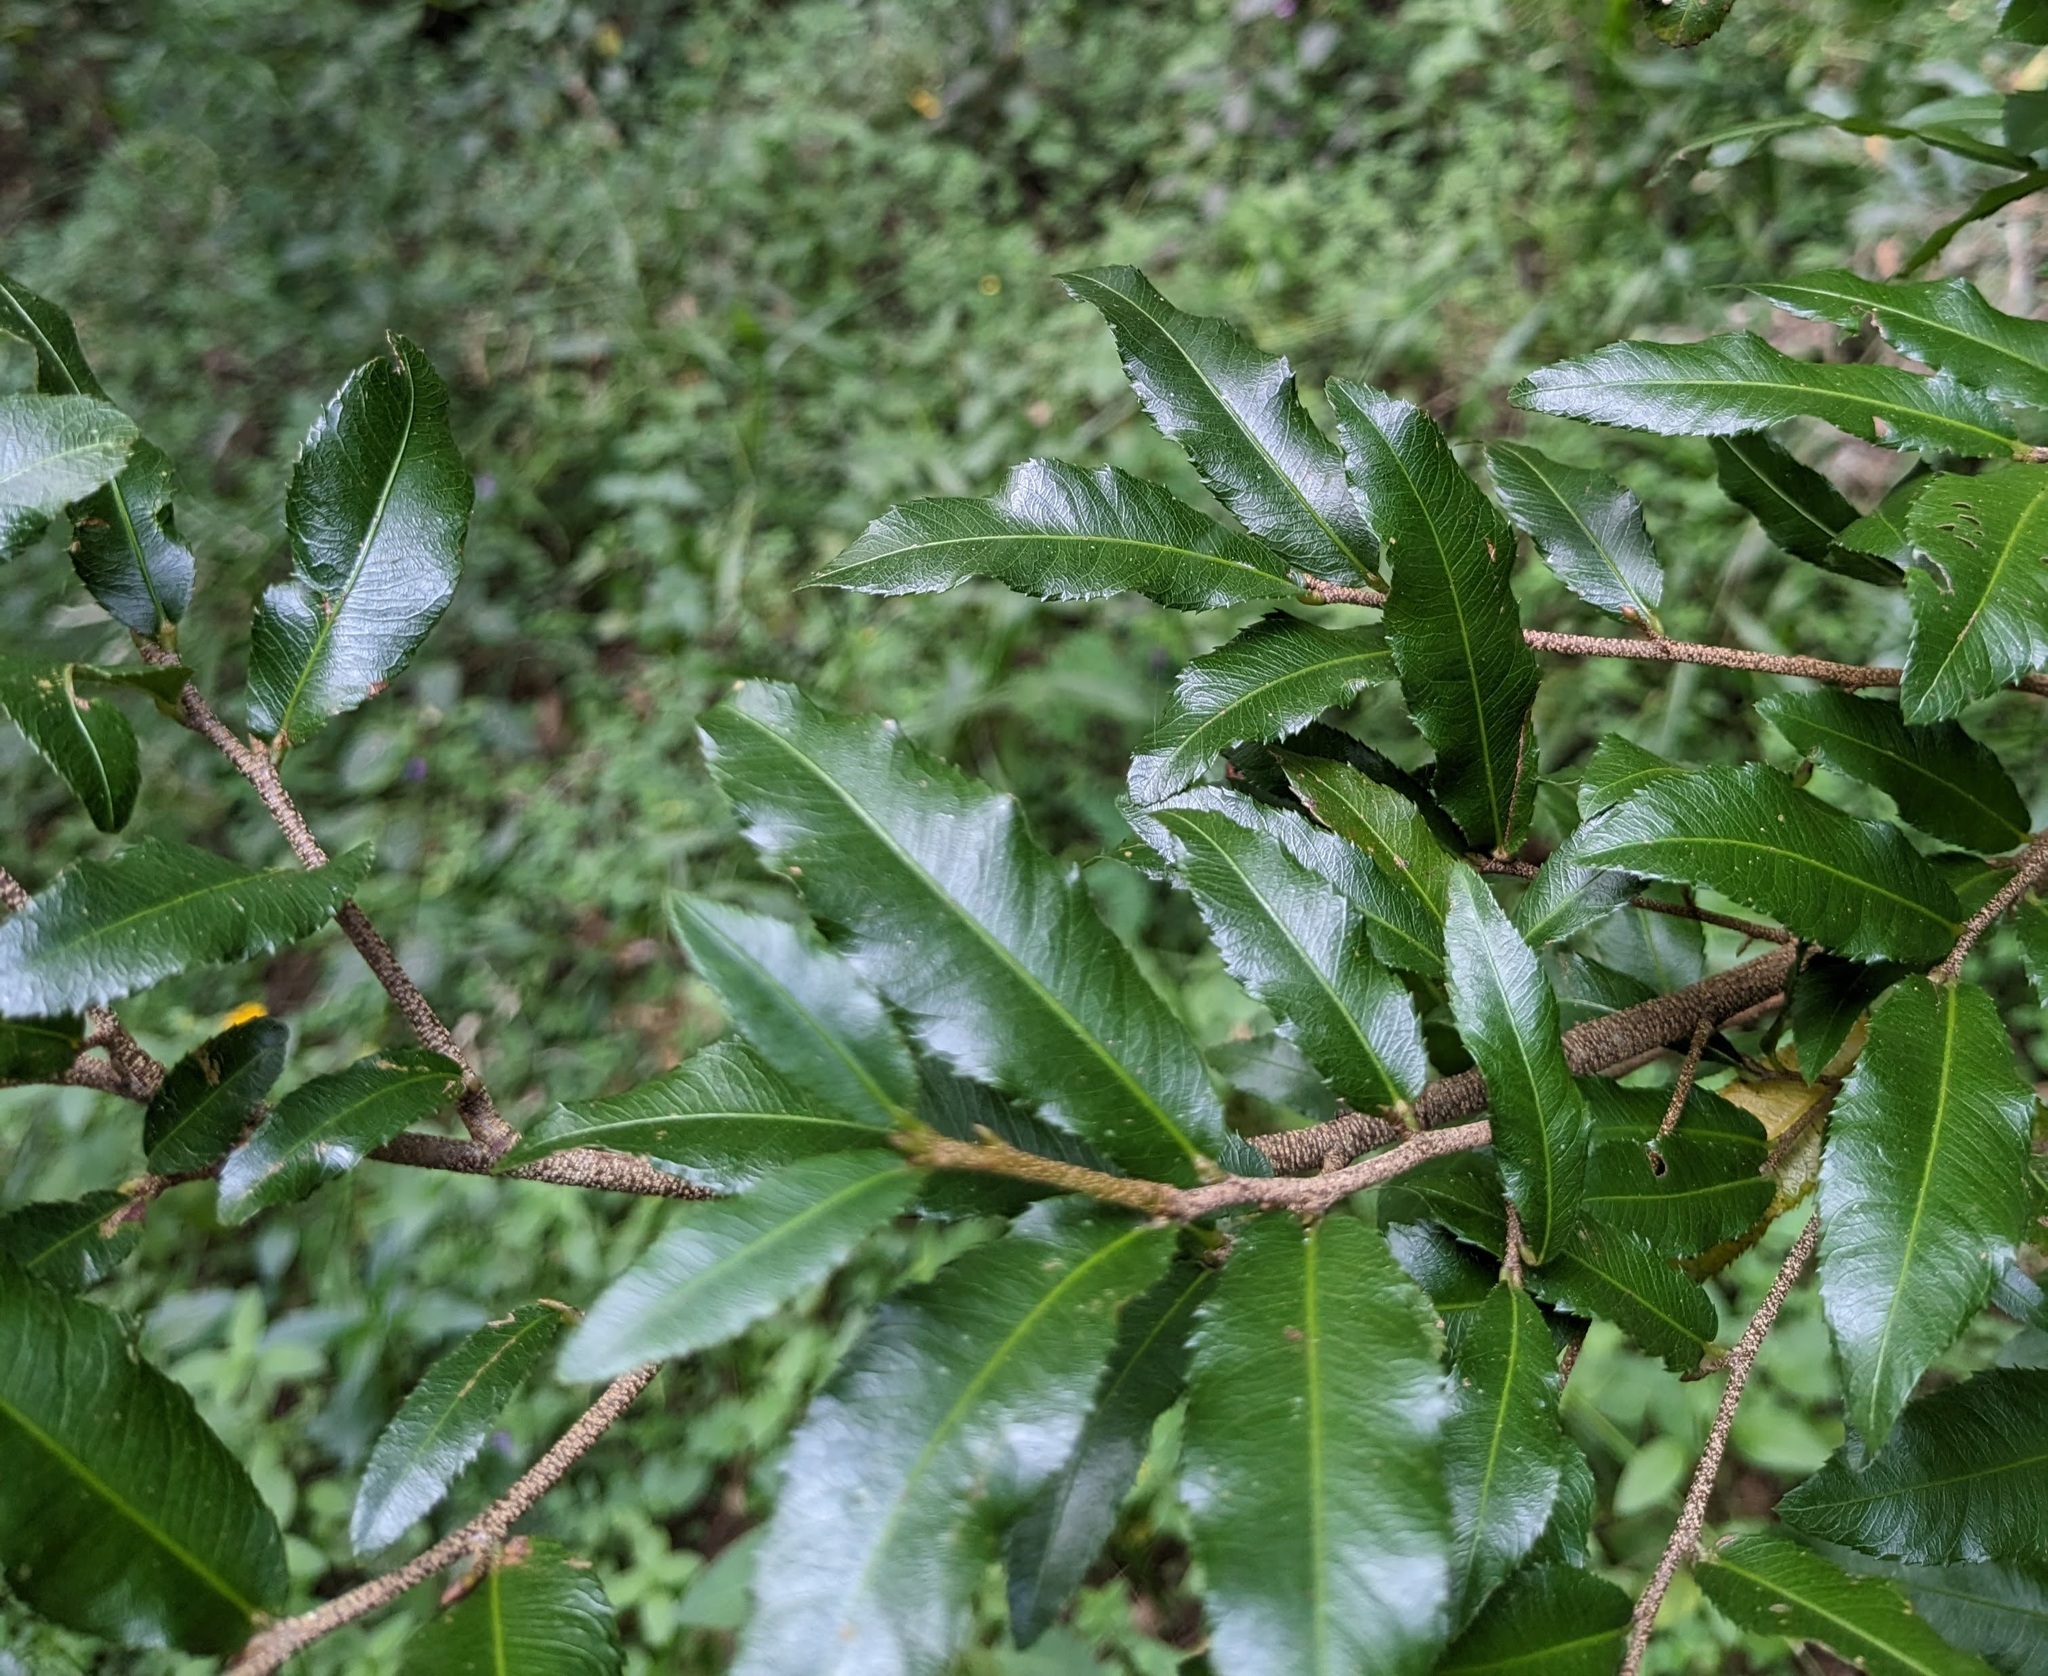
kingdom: Plantae
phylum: Tracheophyta
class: Magnoliopsida
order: Malpighiales
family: Ochnaceae
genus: Ochna
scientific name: Ochna serrulata
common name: Mickey mouse plant
